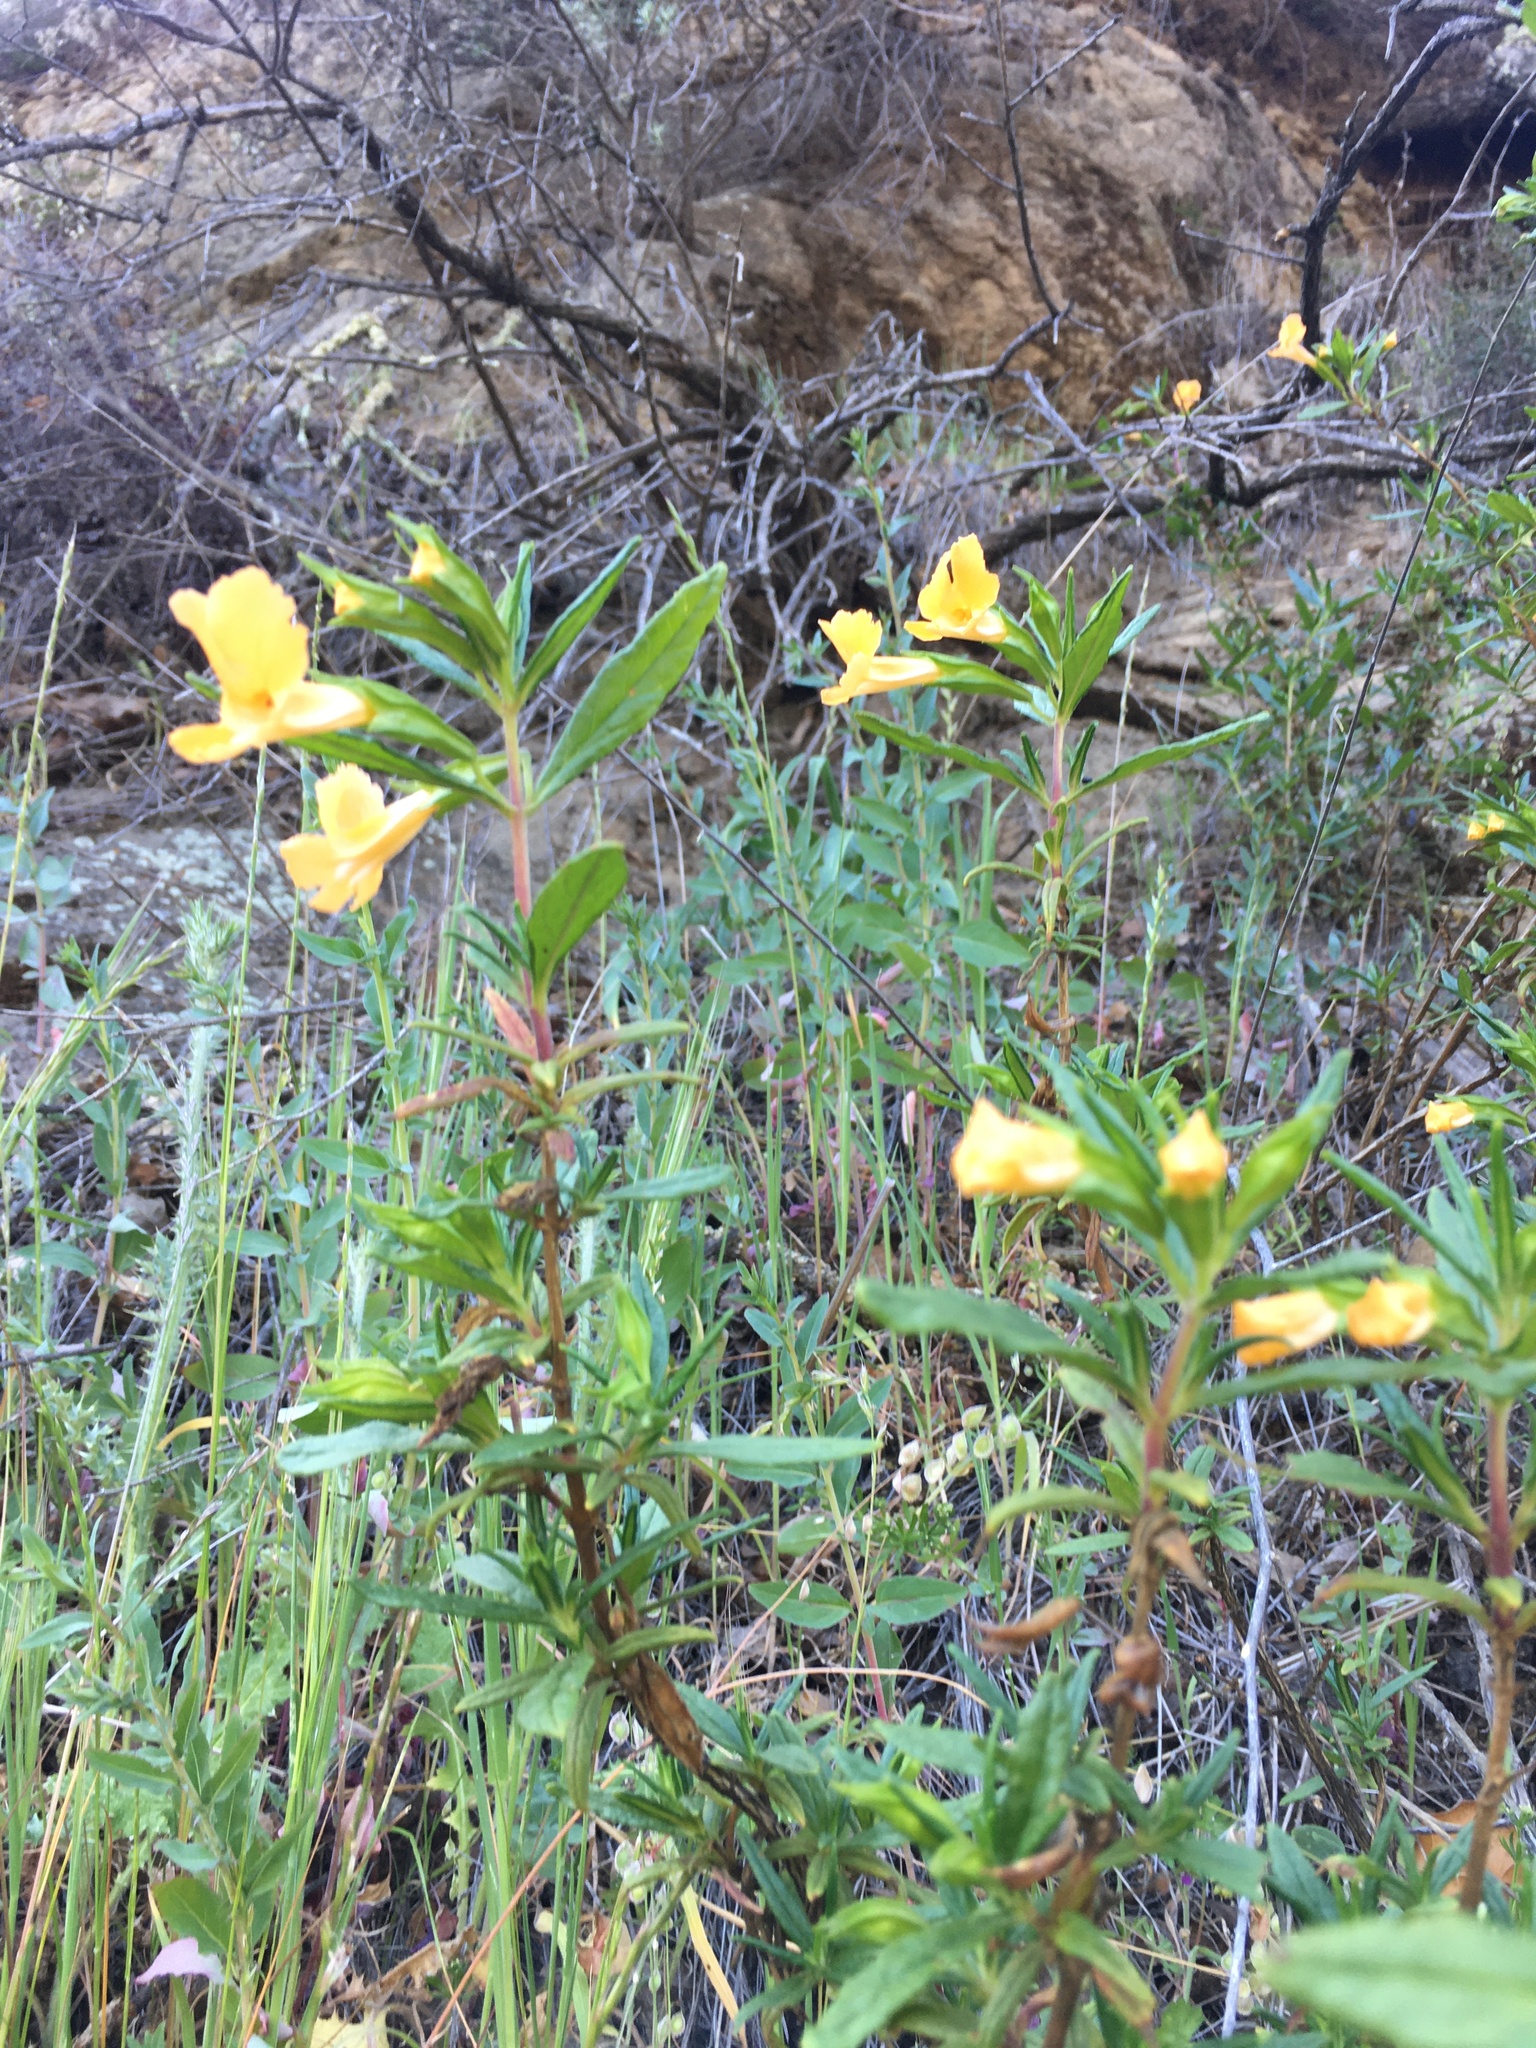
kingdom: Plantae
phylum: Tracheophyta
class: Magnoliopsida
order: Lamiales
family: Phrymaceae
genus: Diplacus
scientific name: Diplacus aurantiacus
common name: Bush monkey-flower
